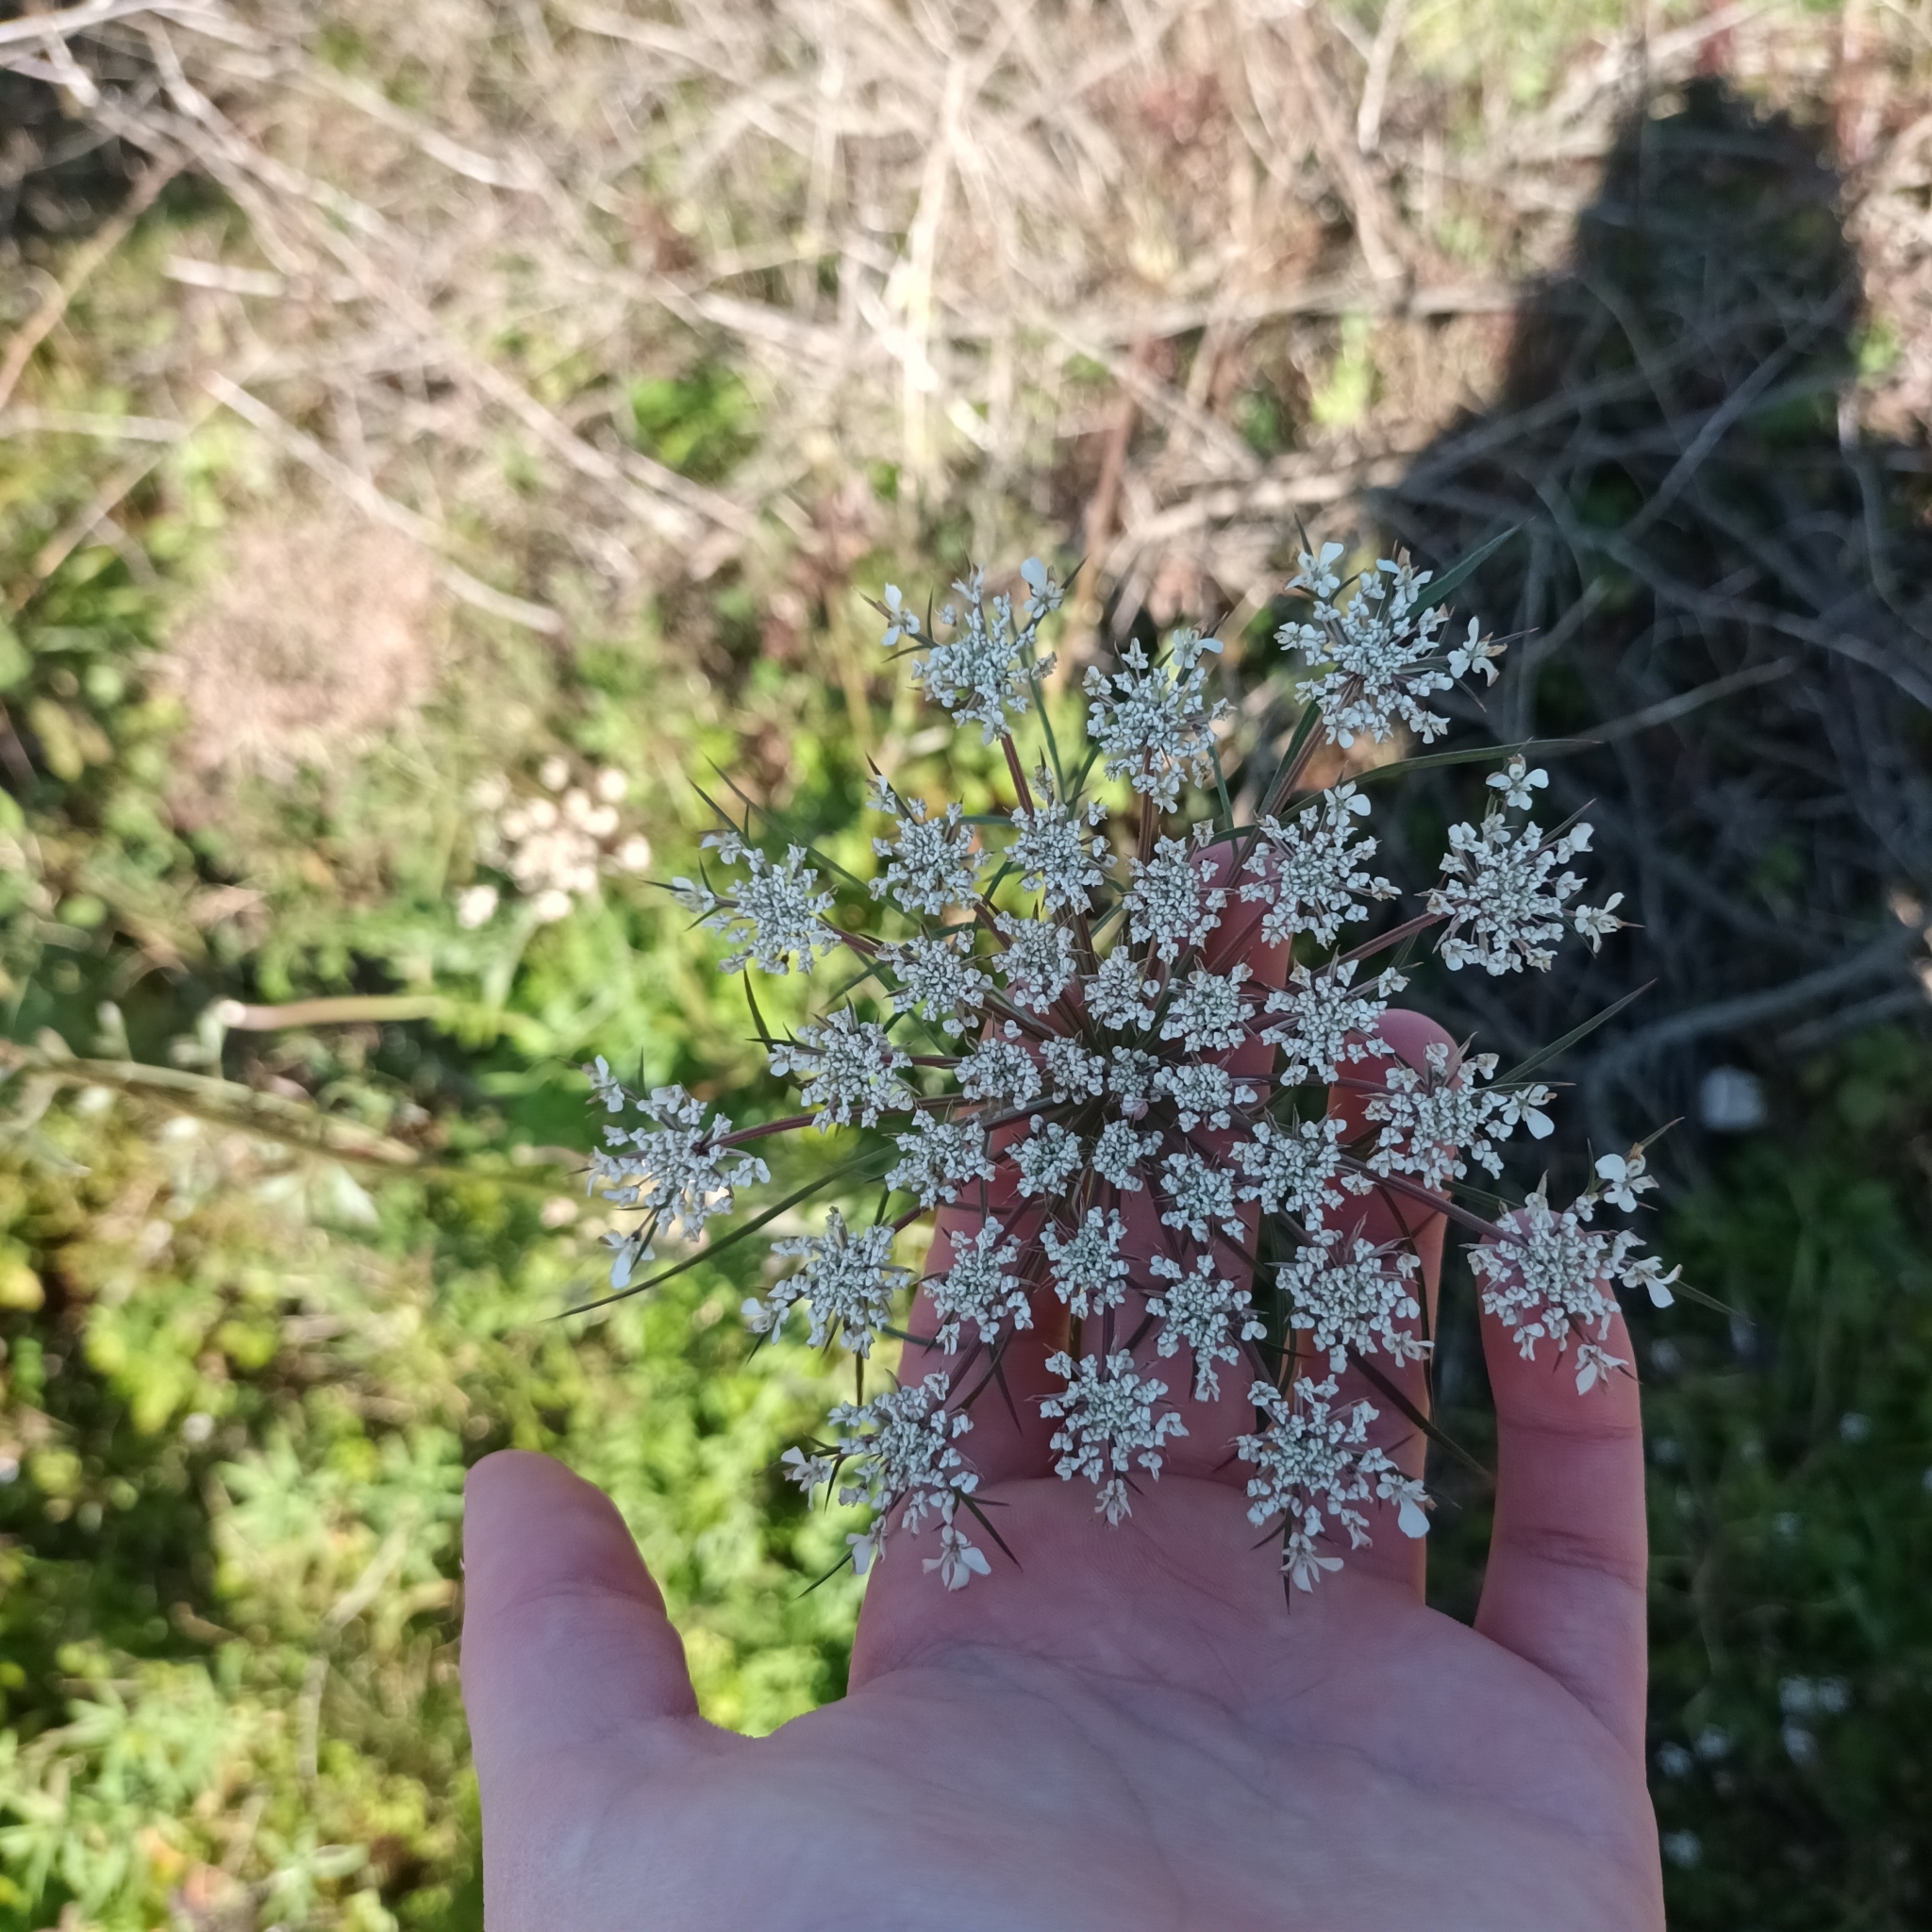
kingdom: Plantae
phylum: Tracheophyta
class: Magnoliopsida
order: Apiales
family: Apiaceae
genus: Daucus
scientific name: Daucus carota
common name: Wild carrot
